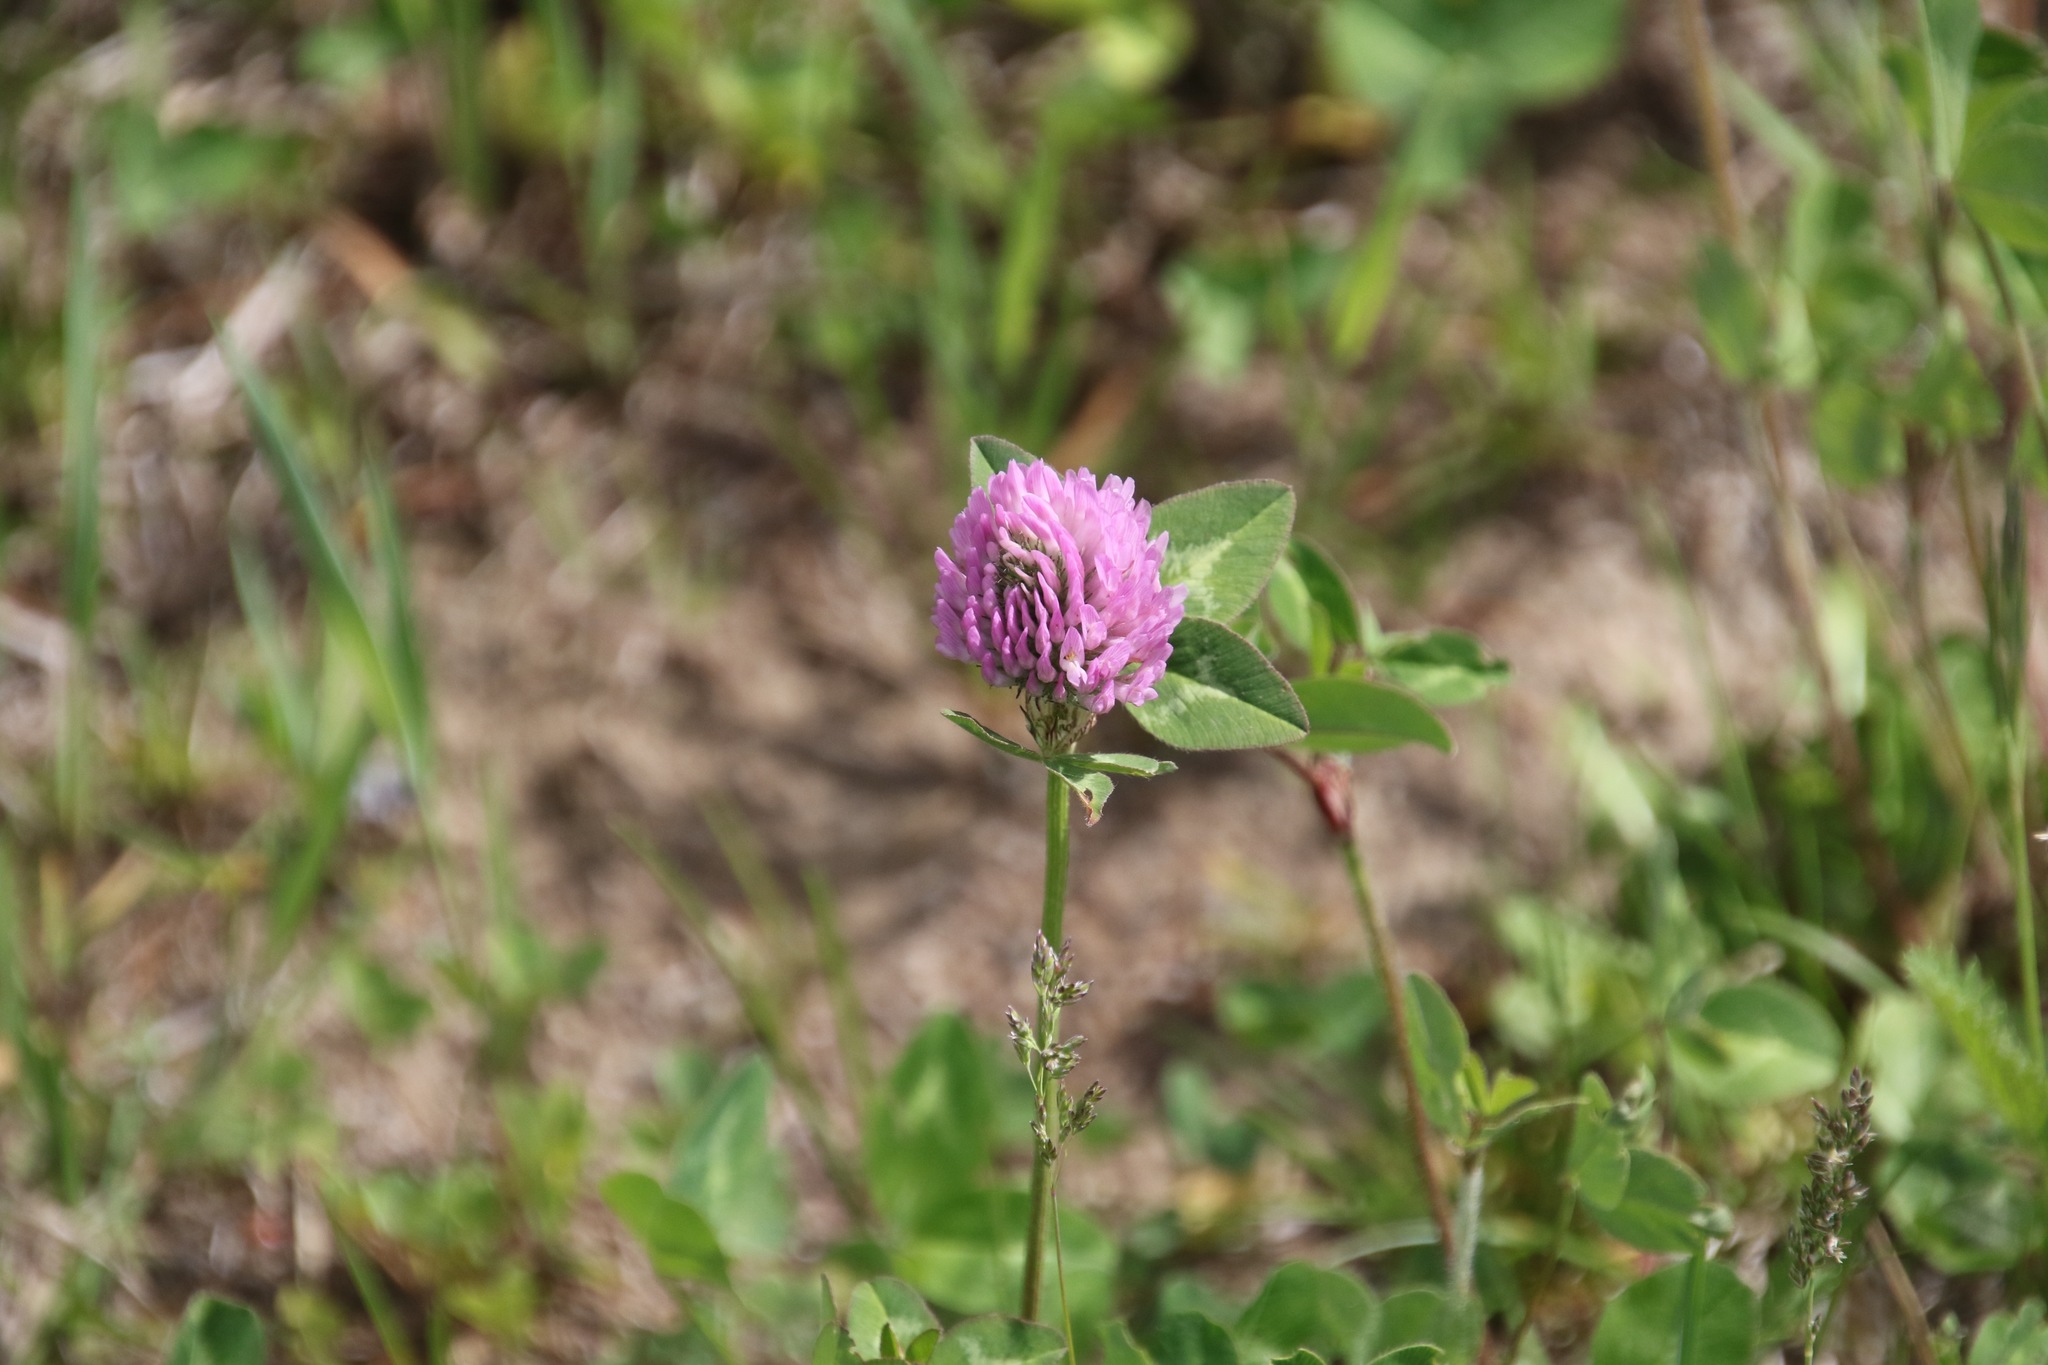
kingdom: Plantae
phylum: Tracheophyta
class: Magnoliopsida
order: Fabales
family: Fabaceae
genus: Trifolium
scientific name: Trifolium pratense
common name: Red clover
